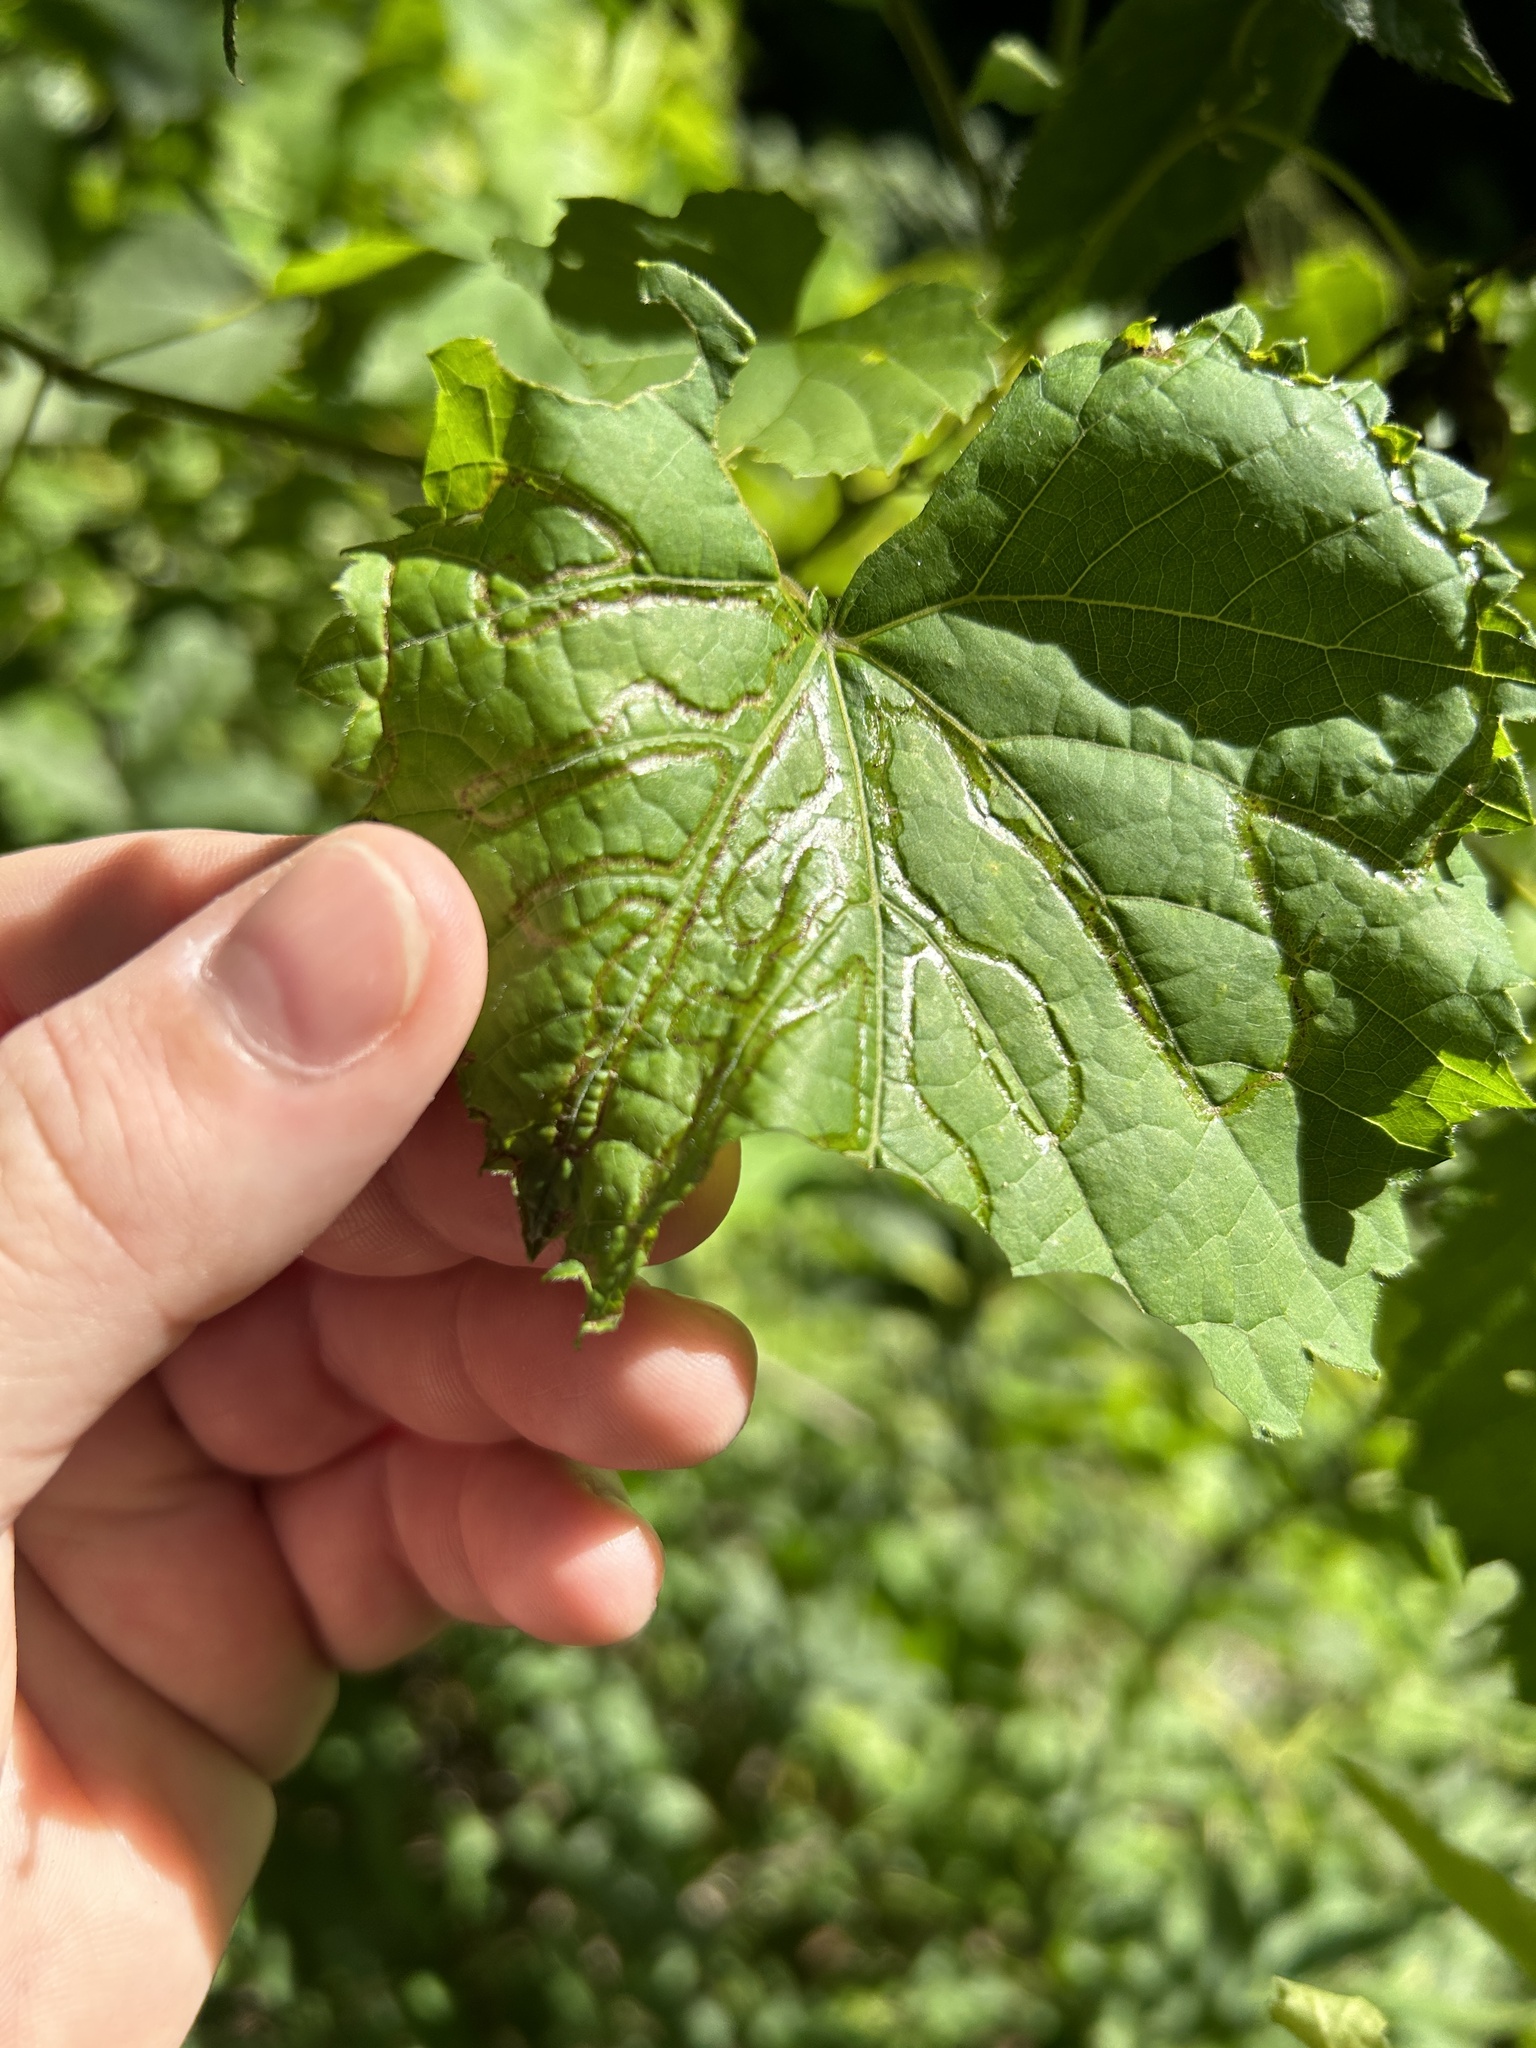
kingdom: Animalia
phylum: Arthropoda
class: Insecta
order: Lepidoptera
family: Gracillariidae
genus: Phyllocnistis
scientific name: Phyllocnistis vitegenella
